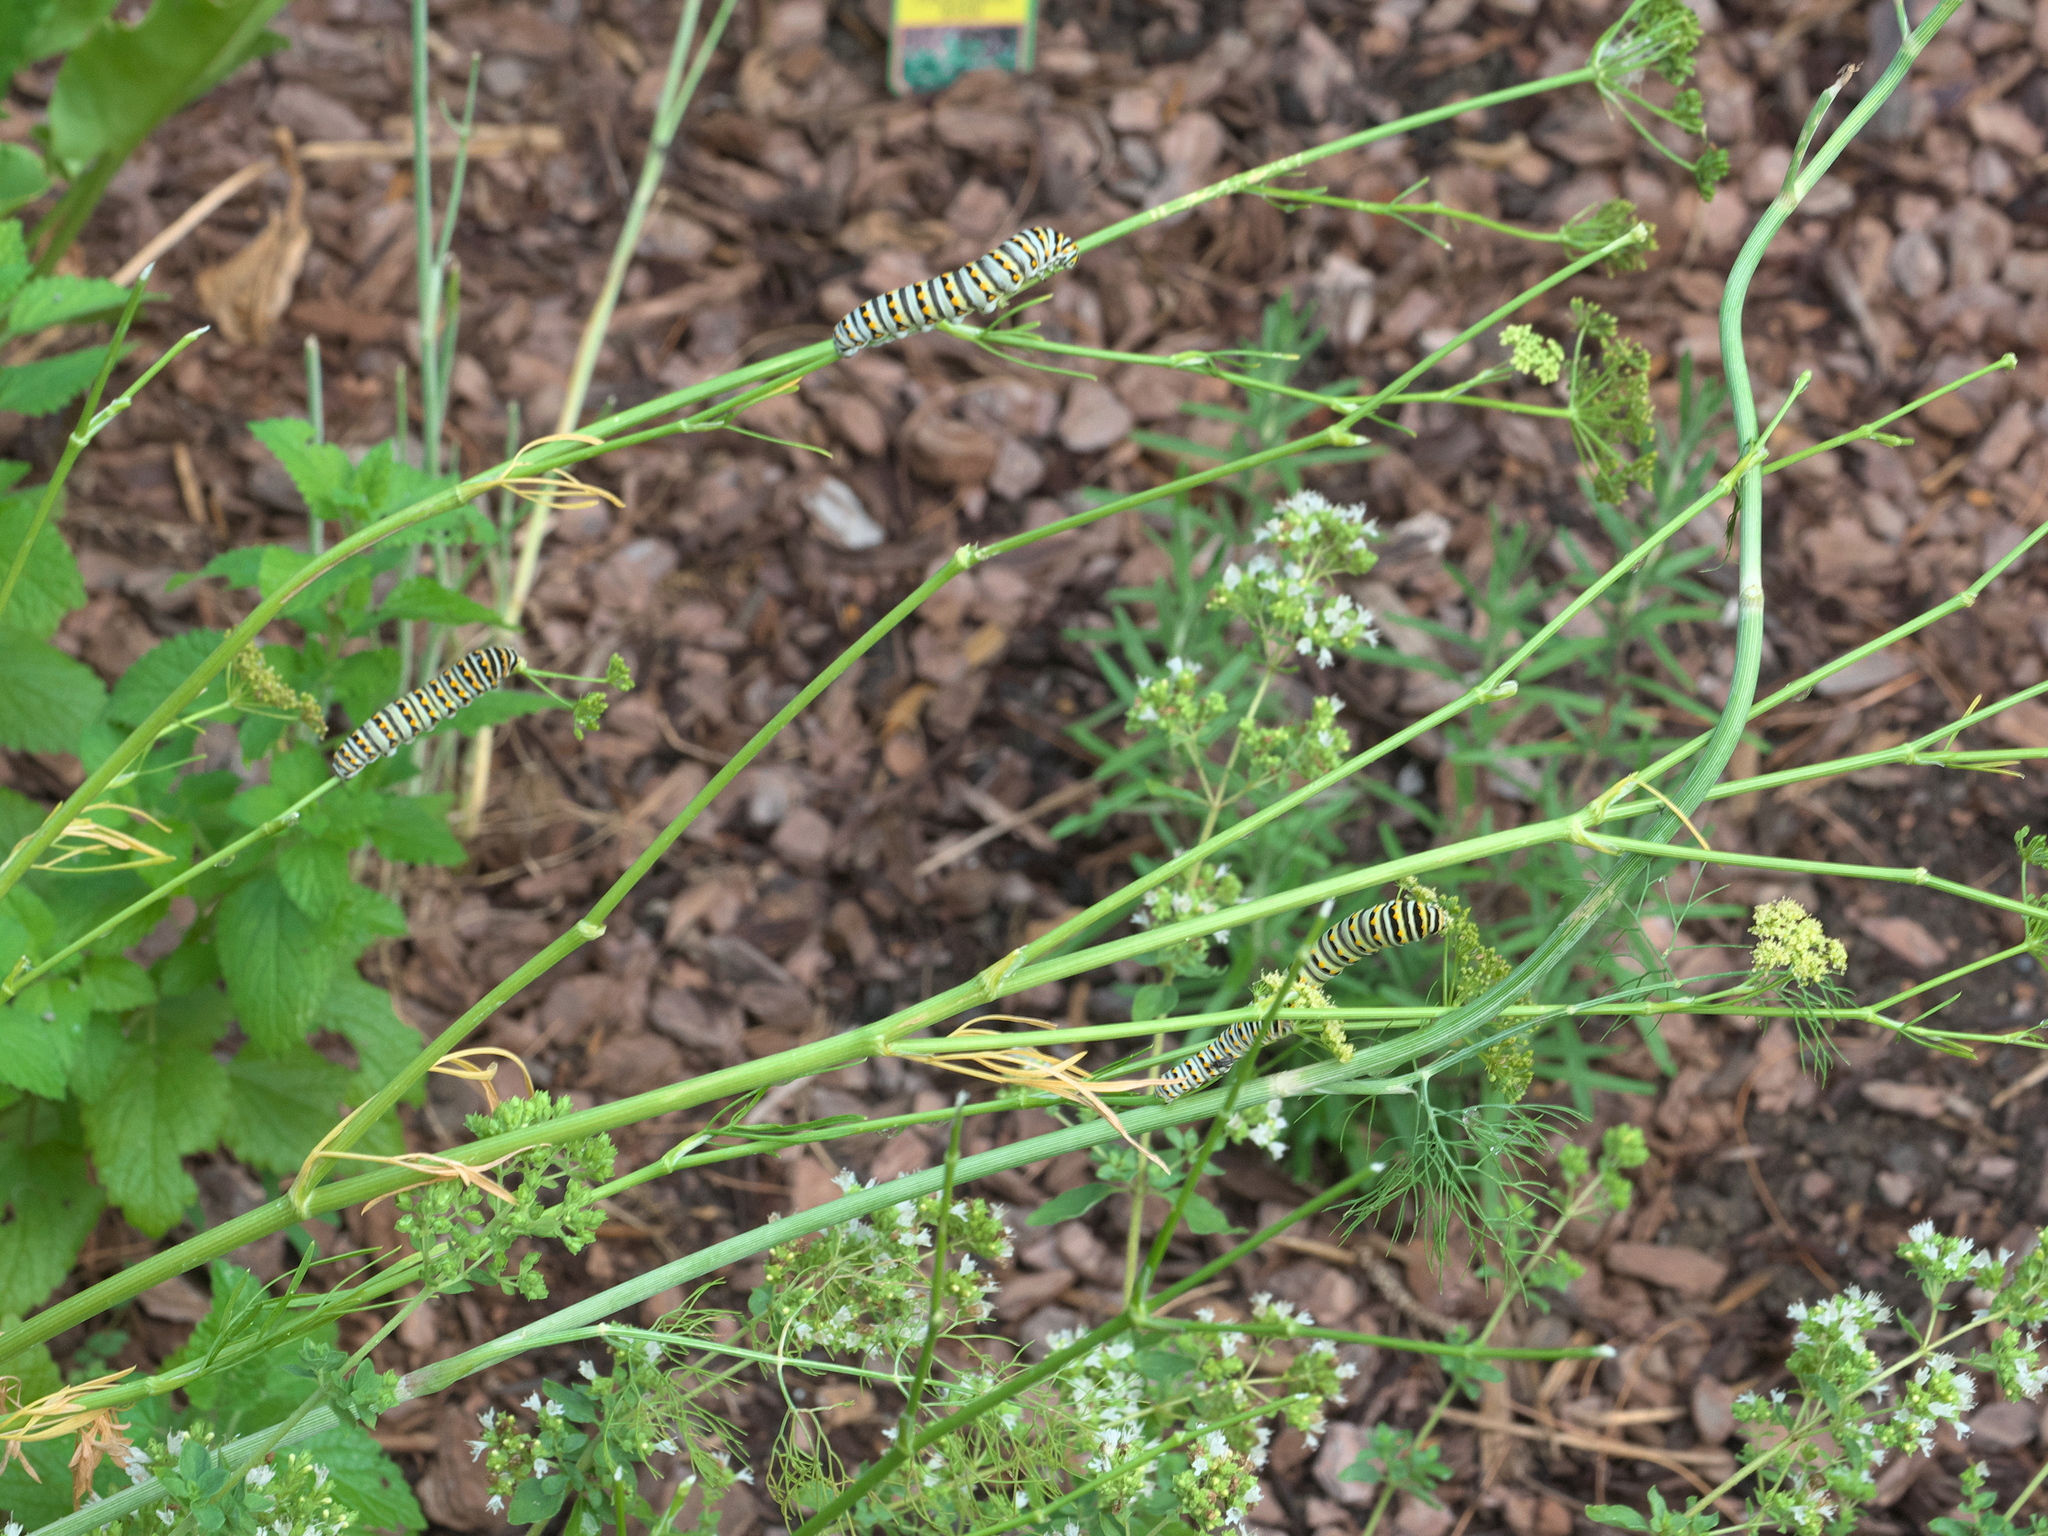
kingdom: Animalia
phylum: Arthropoda
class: Insecta
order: Lepidoptera
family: Papilionidae
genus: Papilio
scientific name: Papilio polyxenes
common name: Black swallowtail
